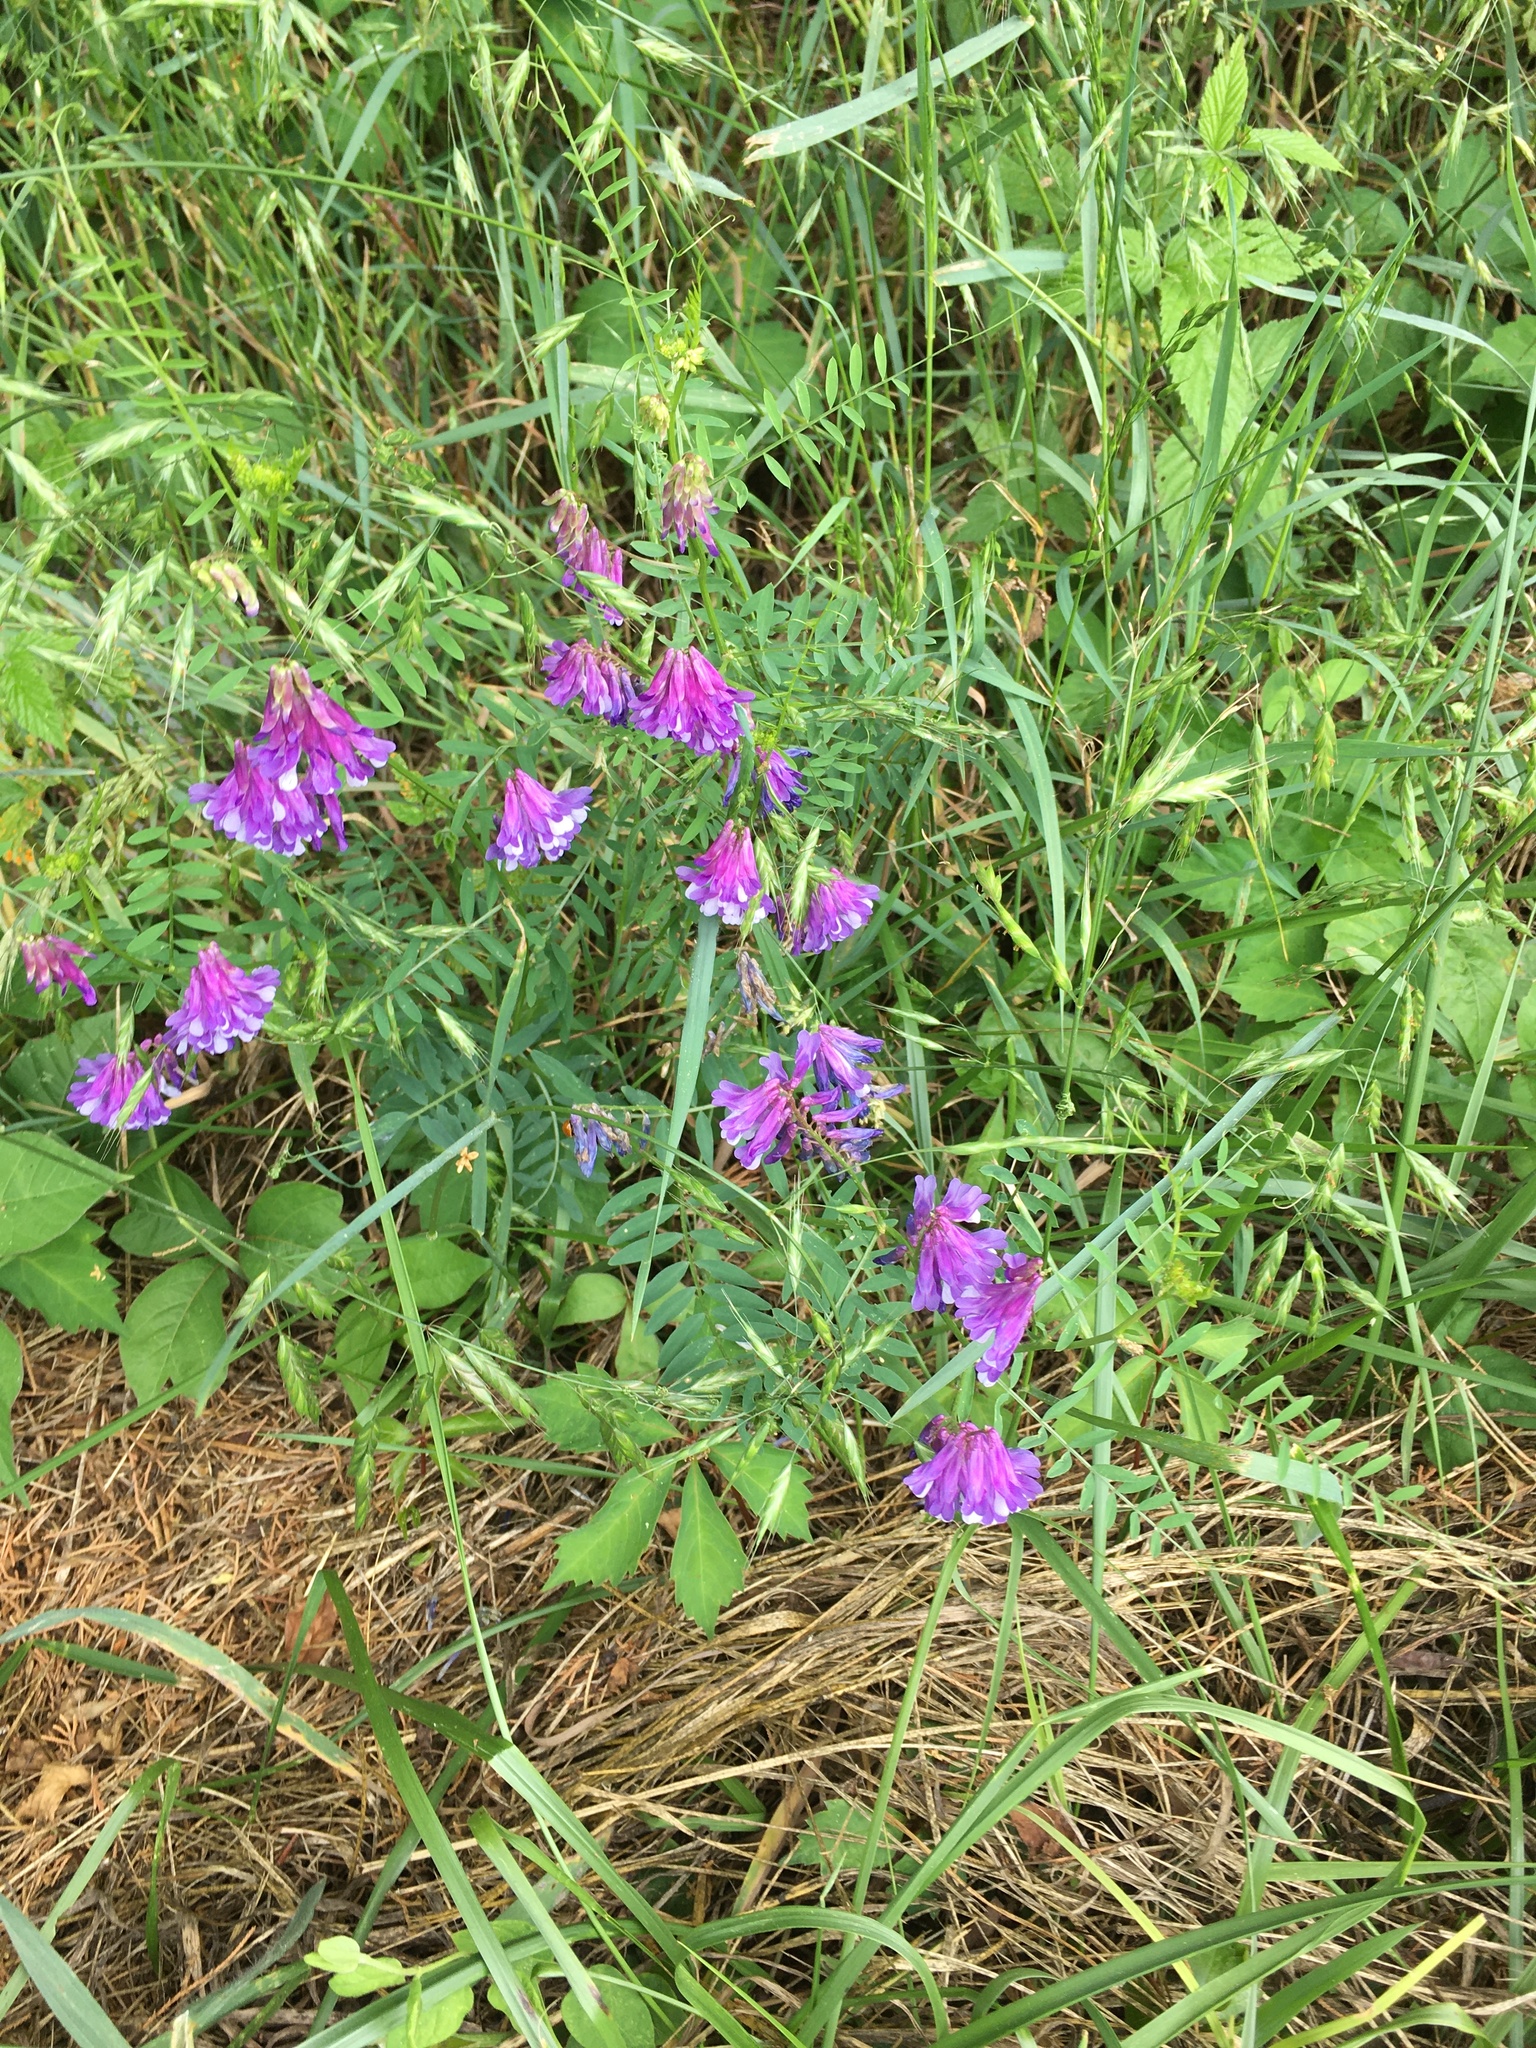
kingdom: Plantae
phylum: Tracheophyta
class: Magnoliopsida
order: Fabales
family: Fabaceae
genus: Vicia
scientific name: Vicia villosa
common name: Fodder vetch
